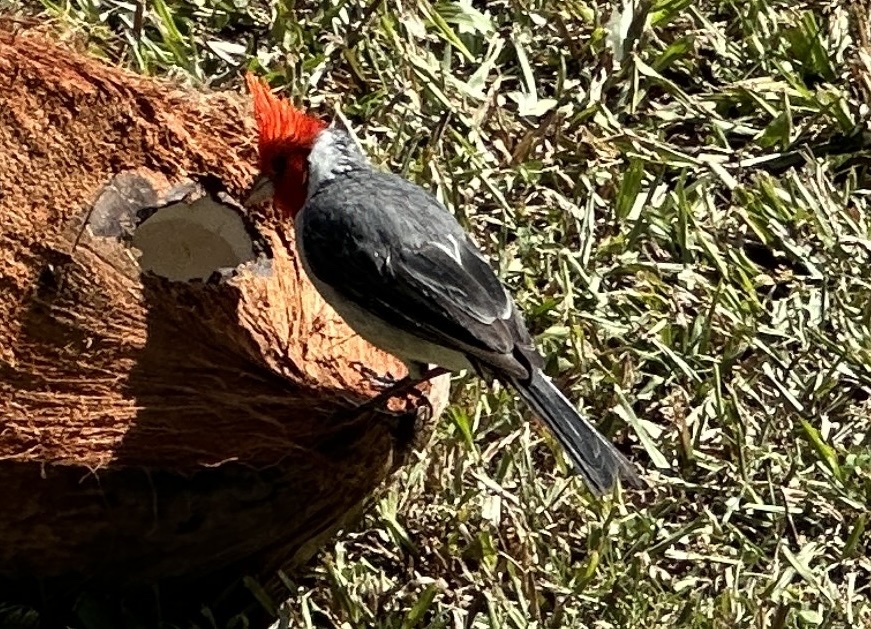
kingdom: Animalia
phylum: Chordata
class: Aves
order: Passeriformes
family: Thraupidae
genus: Paroaria
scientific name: Paroaria coronata
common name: Red-crested cardinal
